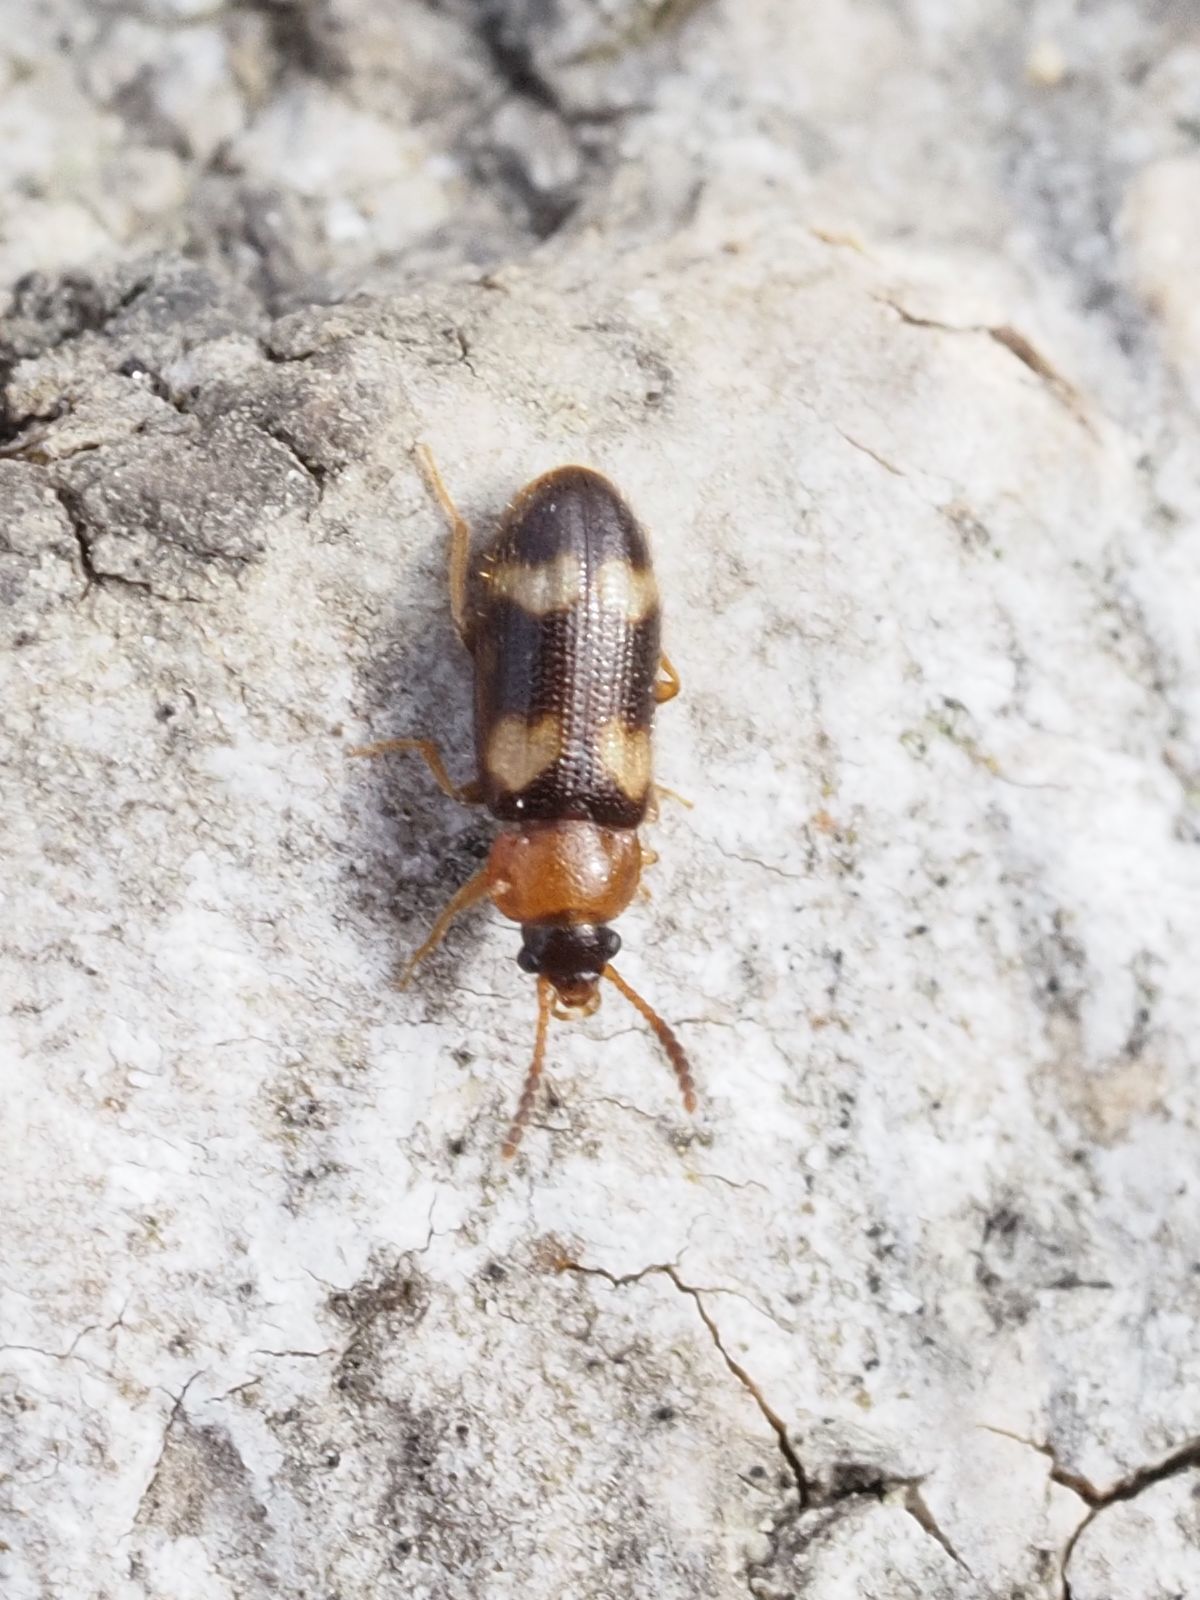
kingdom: Animalia
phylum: Arthropoda
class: Insecta
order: Coleoptera
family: Mycetophagidae
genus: Mycetophagus
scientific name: Mycetophagus fulvicollis
